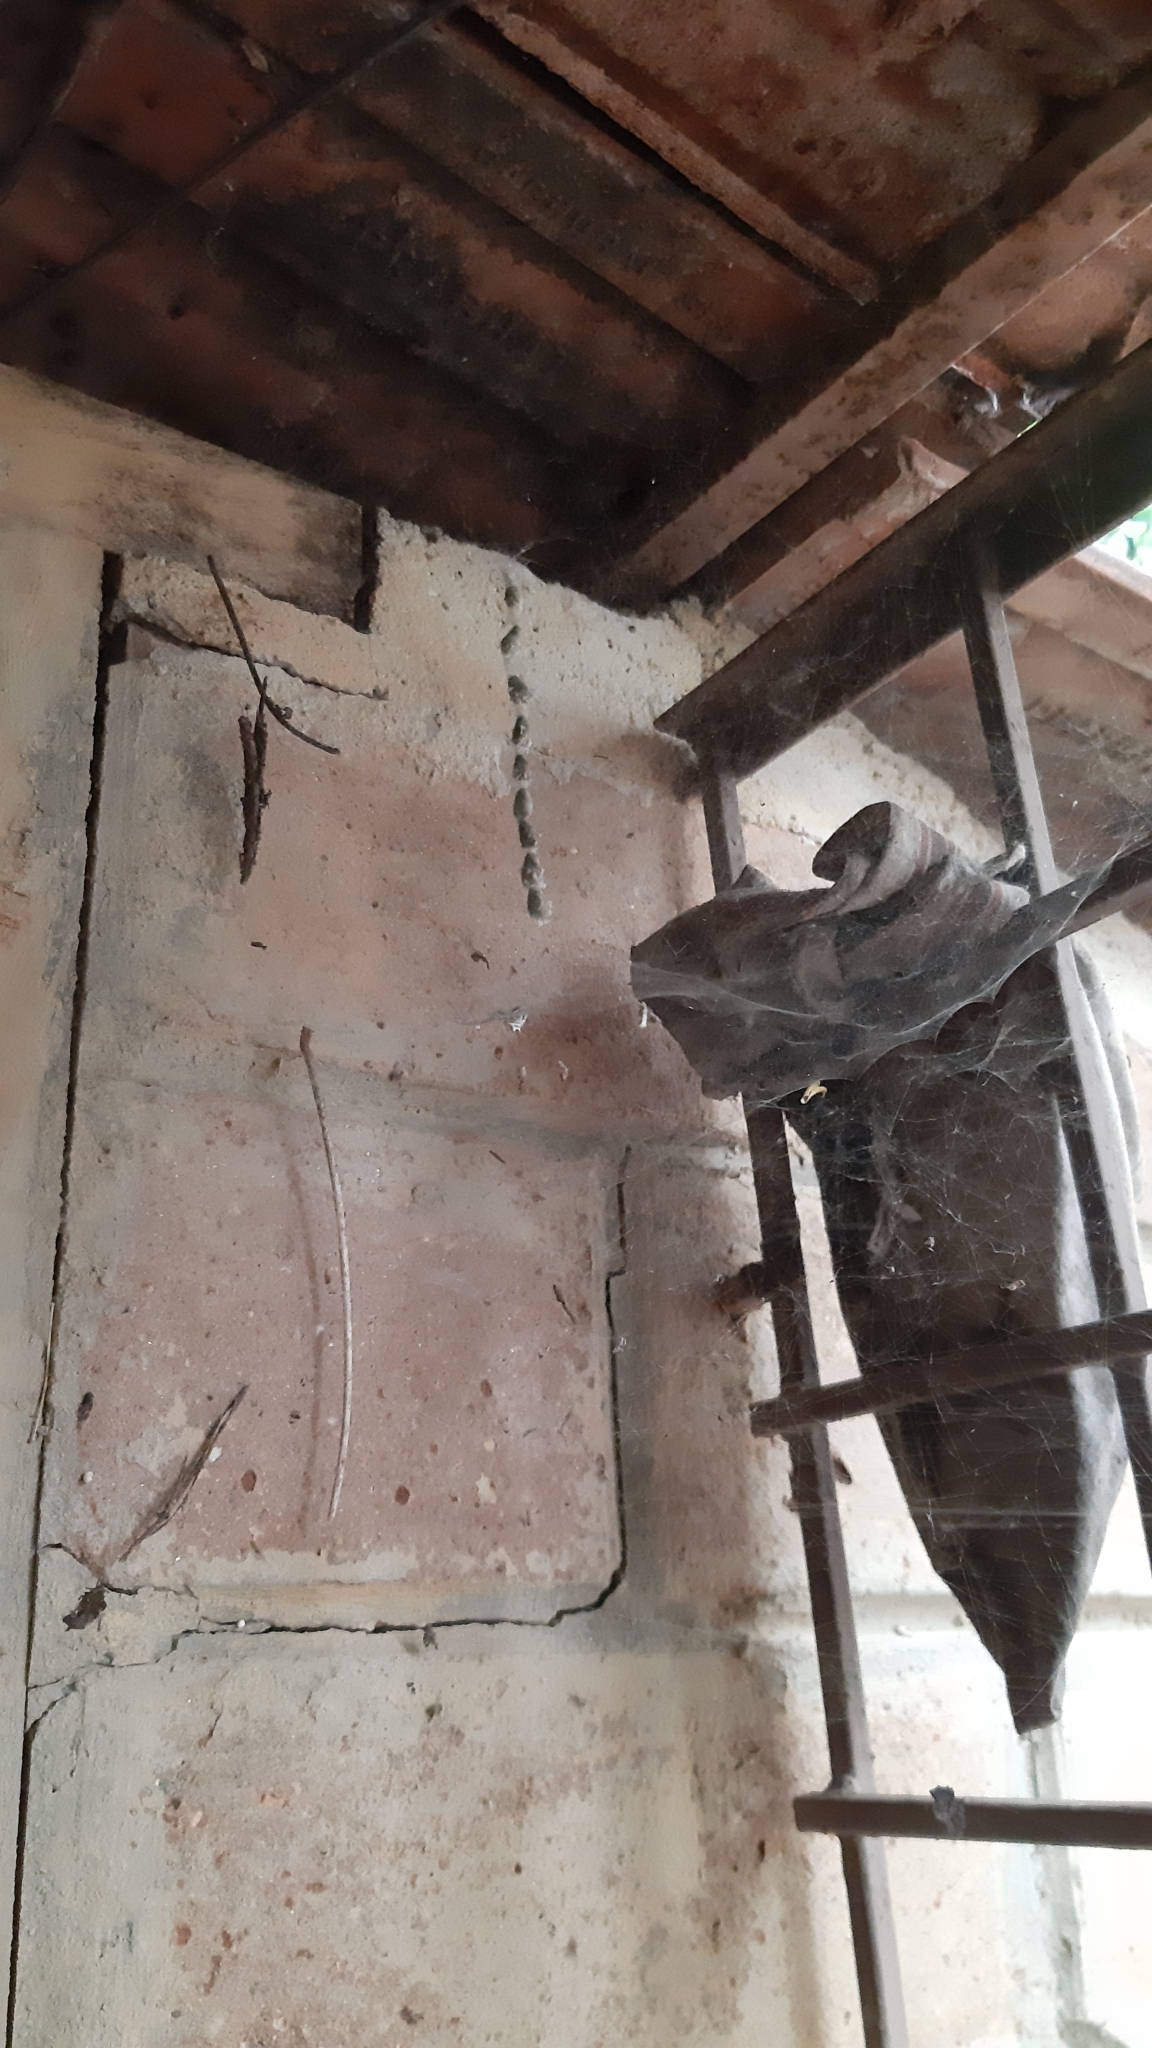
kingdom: Animalia
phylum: Arthropoda
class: Arachnida
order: Araneae
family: Araneidae
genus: Cyrtophora
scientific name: Cyrtophora cicatrosa
